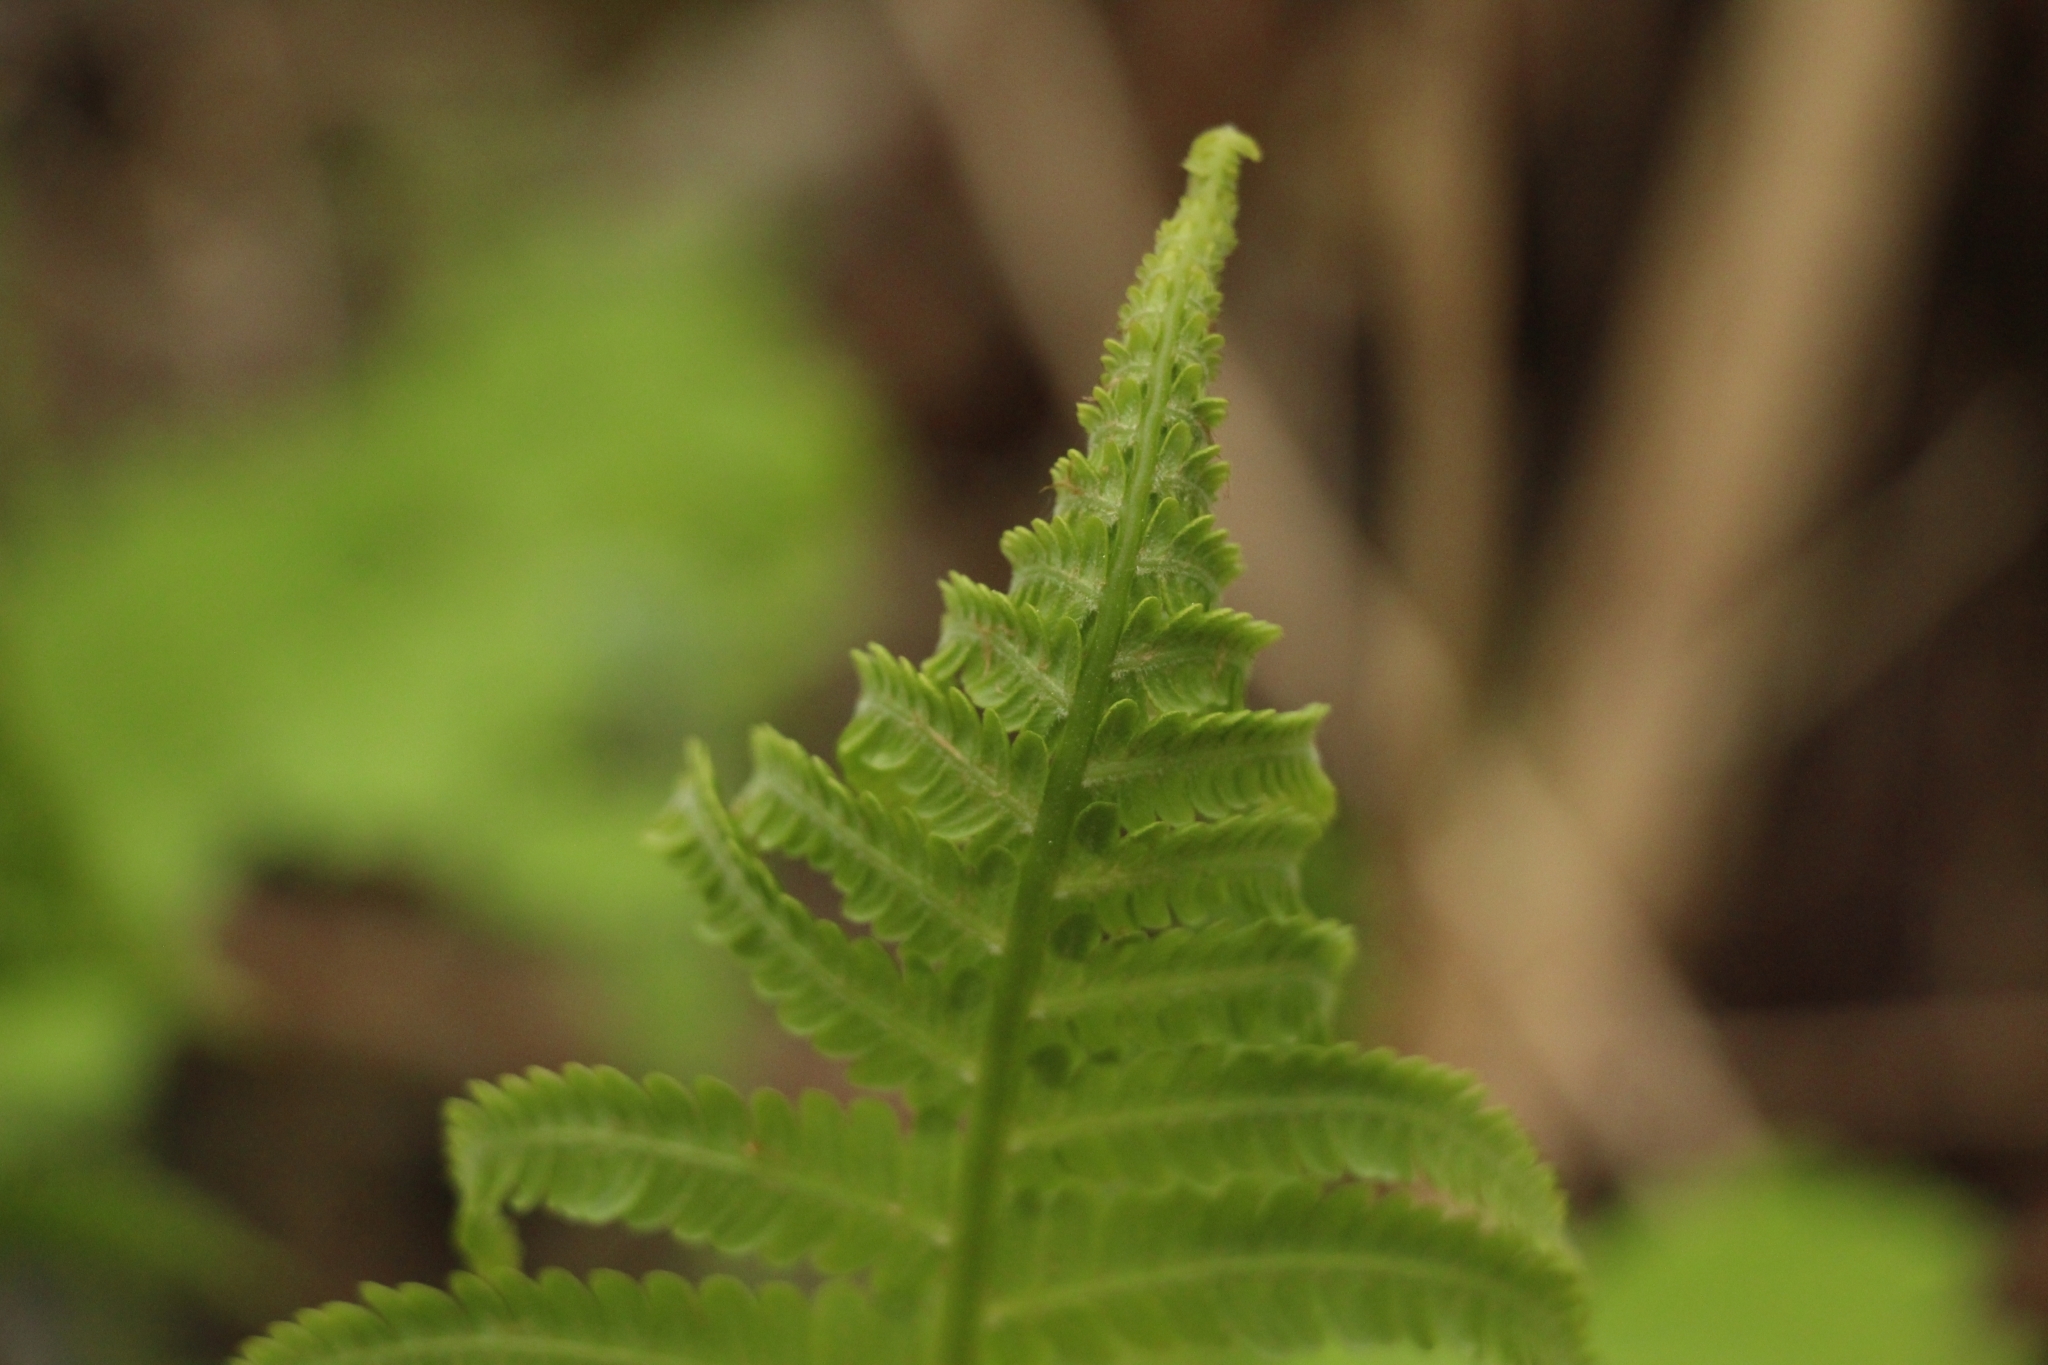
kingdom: Plantae
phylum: Tracheophyta
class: Polypodiopsida
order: Polypodiales
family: Onocleaceae
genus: Matteuccia
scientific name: Matteuccia struthiopteris
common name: Ostrich fern
